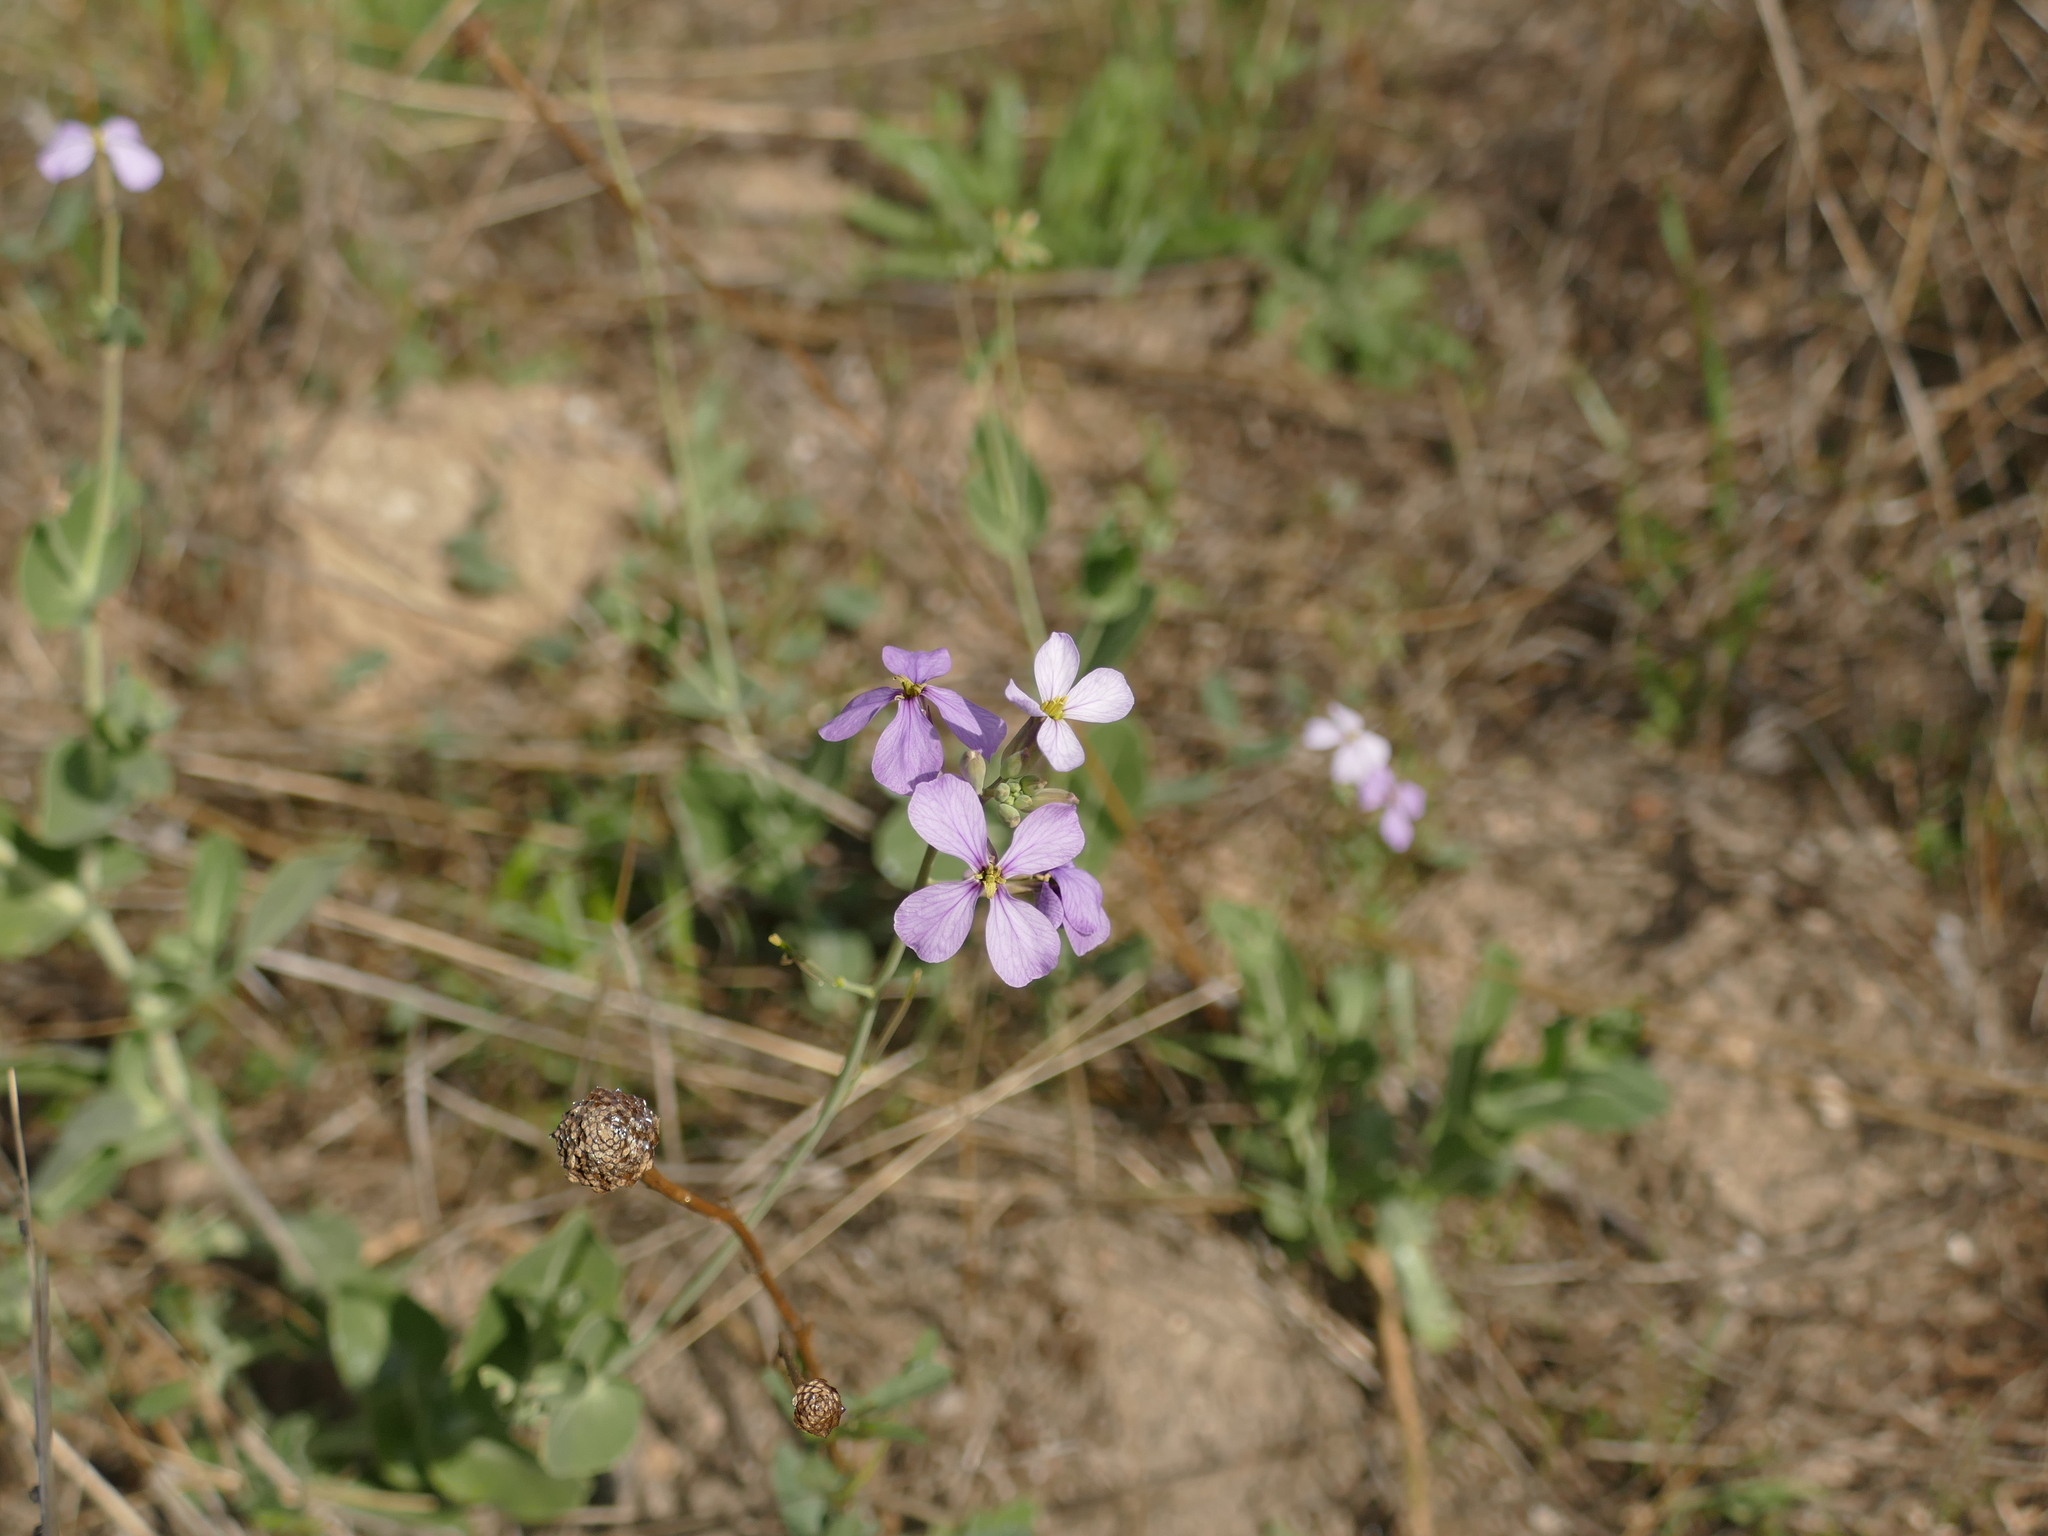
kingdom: Plantae
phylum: Tracheophyta
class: Magnoliopsida
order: Brassicales
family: Brassicaceae
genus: Moricandia
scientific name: Moricandia arvensis
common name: Purple mistress
